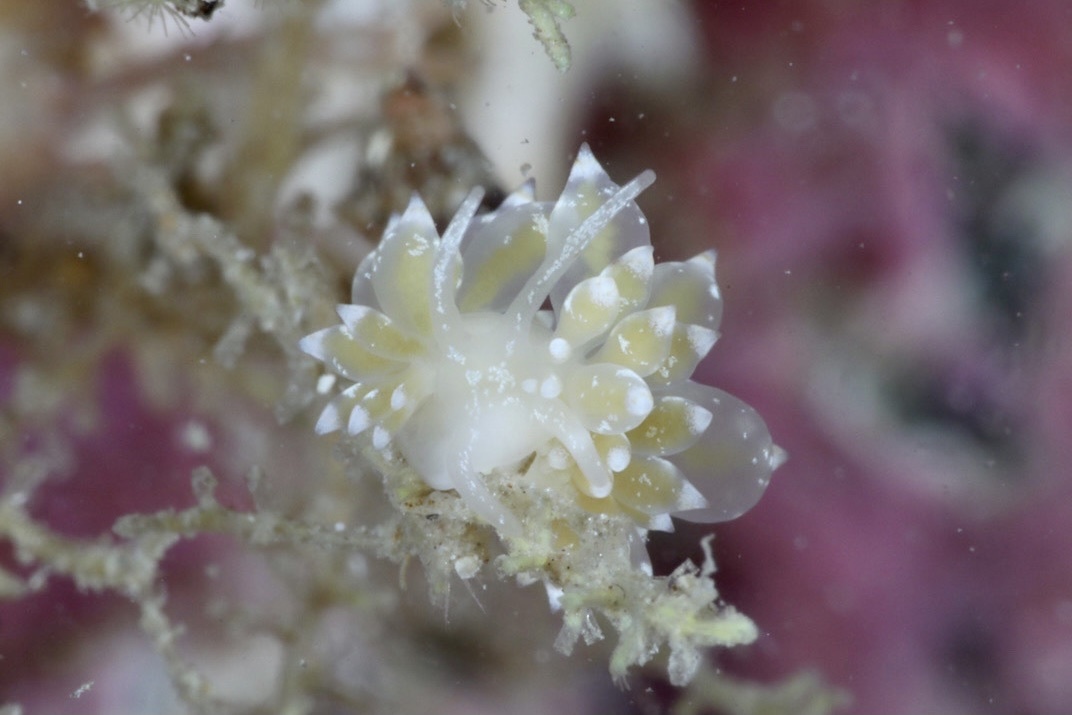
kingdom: Animalia
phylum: Mollusca
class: Gastropoda
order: Nudibranchia
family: Eubranchidae
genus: Amphorina
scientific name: Amphorina pallida
